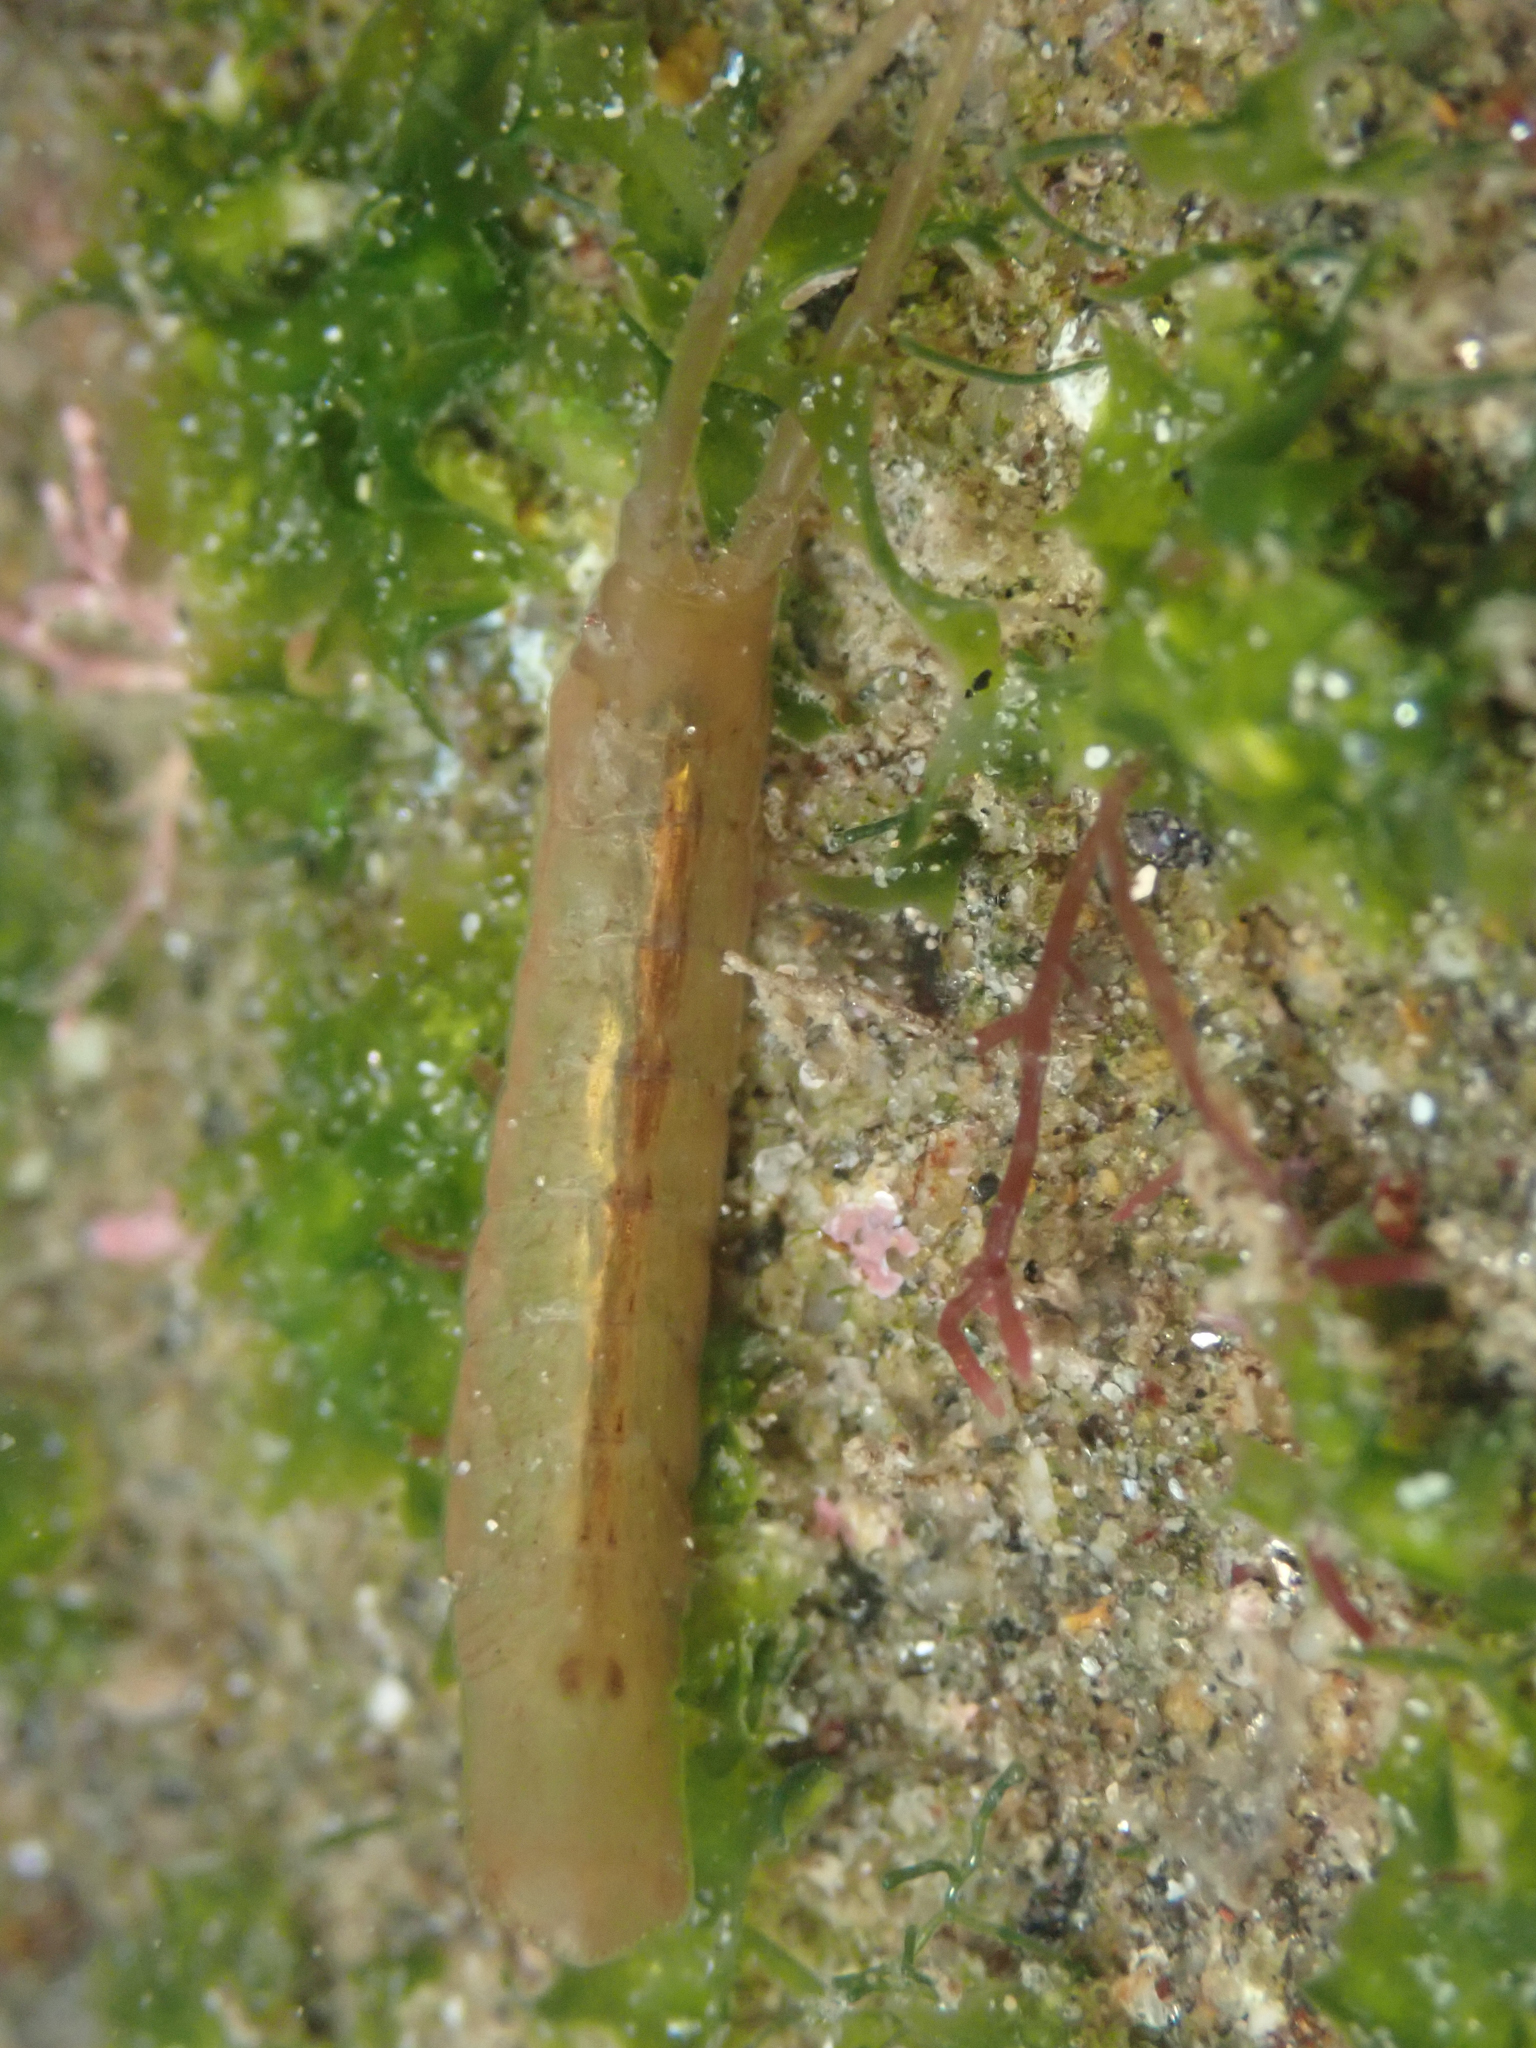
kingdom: Animalia
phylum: Arthropoda
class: Malacostraca
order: Isopoda
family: Idoteidae
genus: Idotea
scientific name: Idotea urotoma
